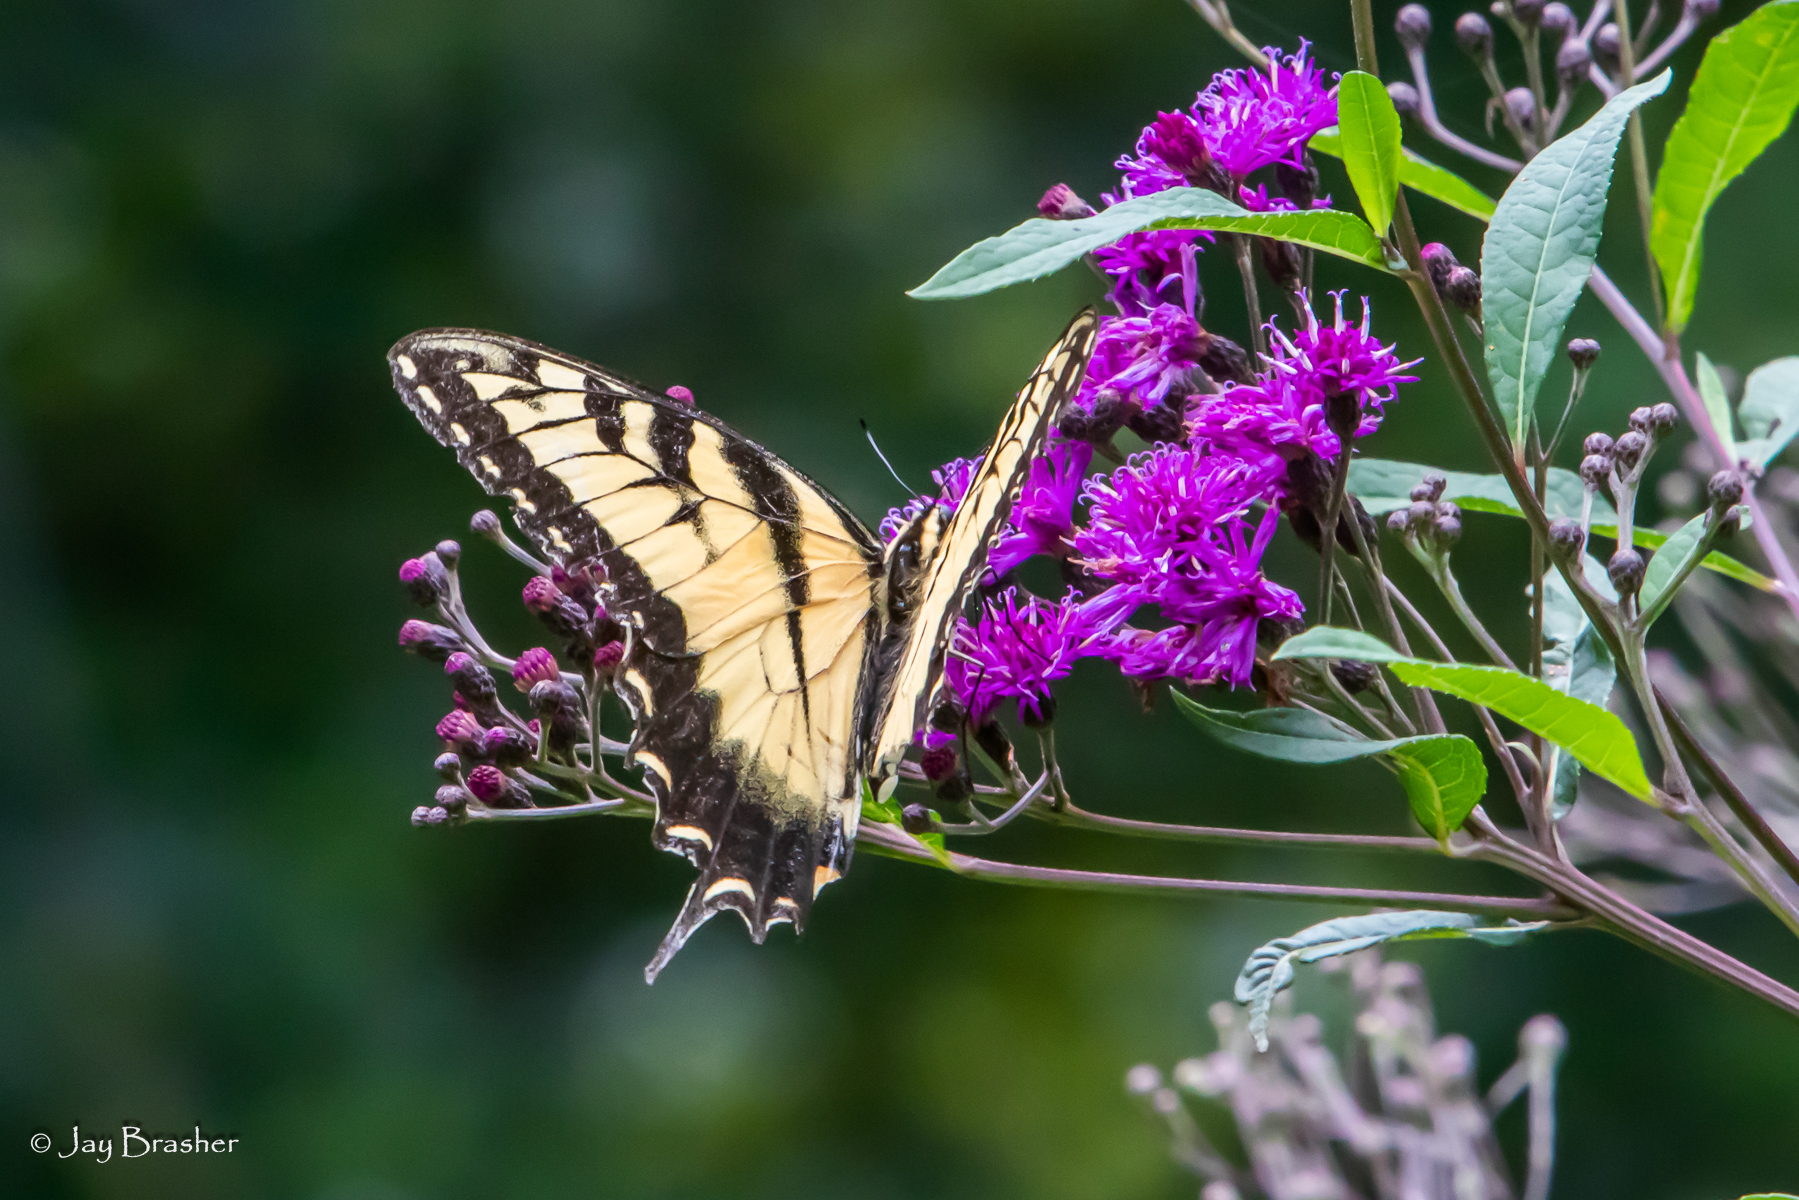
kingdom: Animalia
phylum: Arthropoda
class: Insecta
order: Lepidoptera
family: Papilionidae
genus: Papilio
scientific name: Papilio glaucus
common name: Tiger swallowtail
